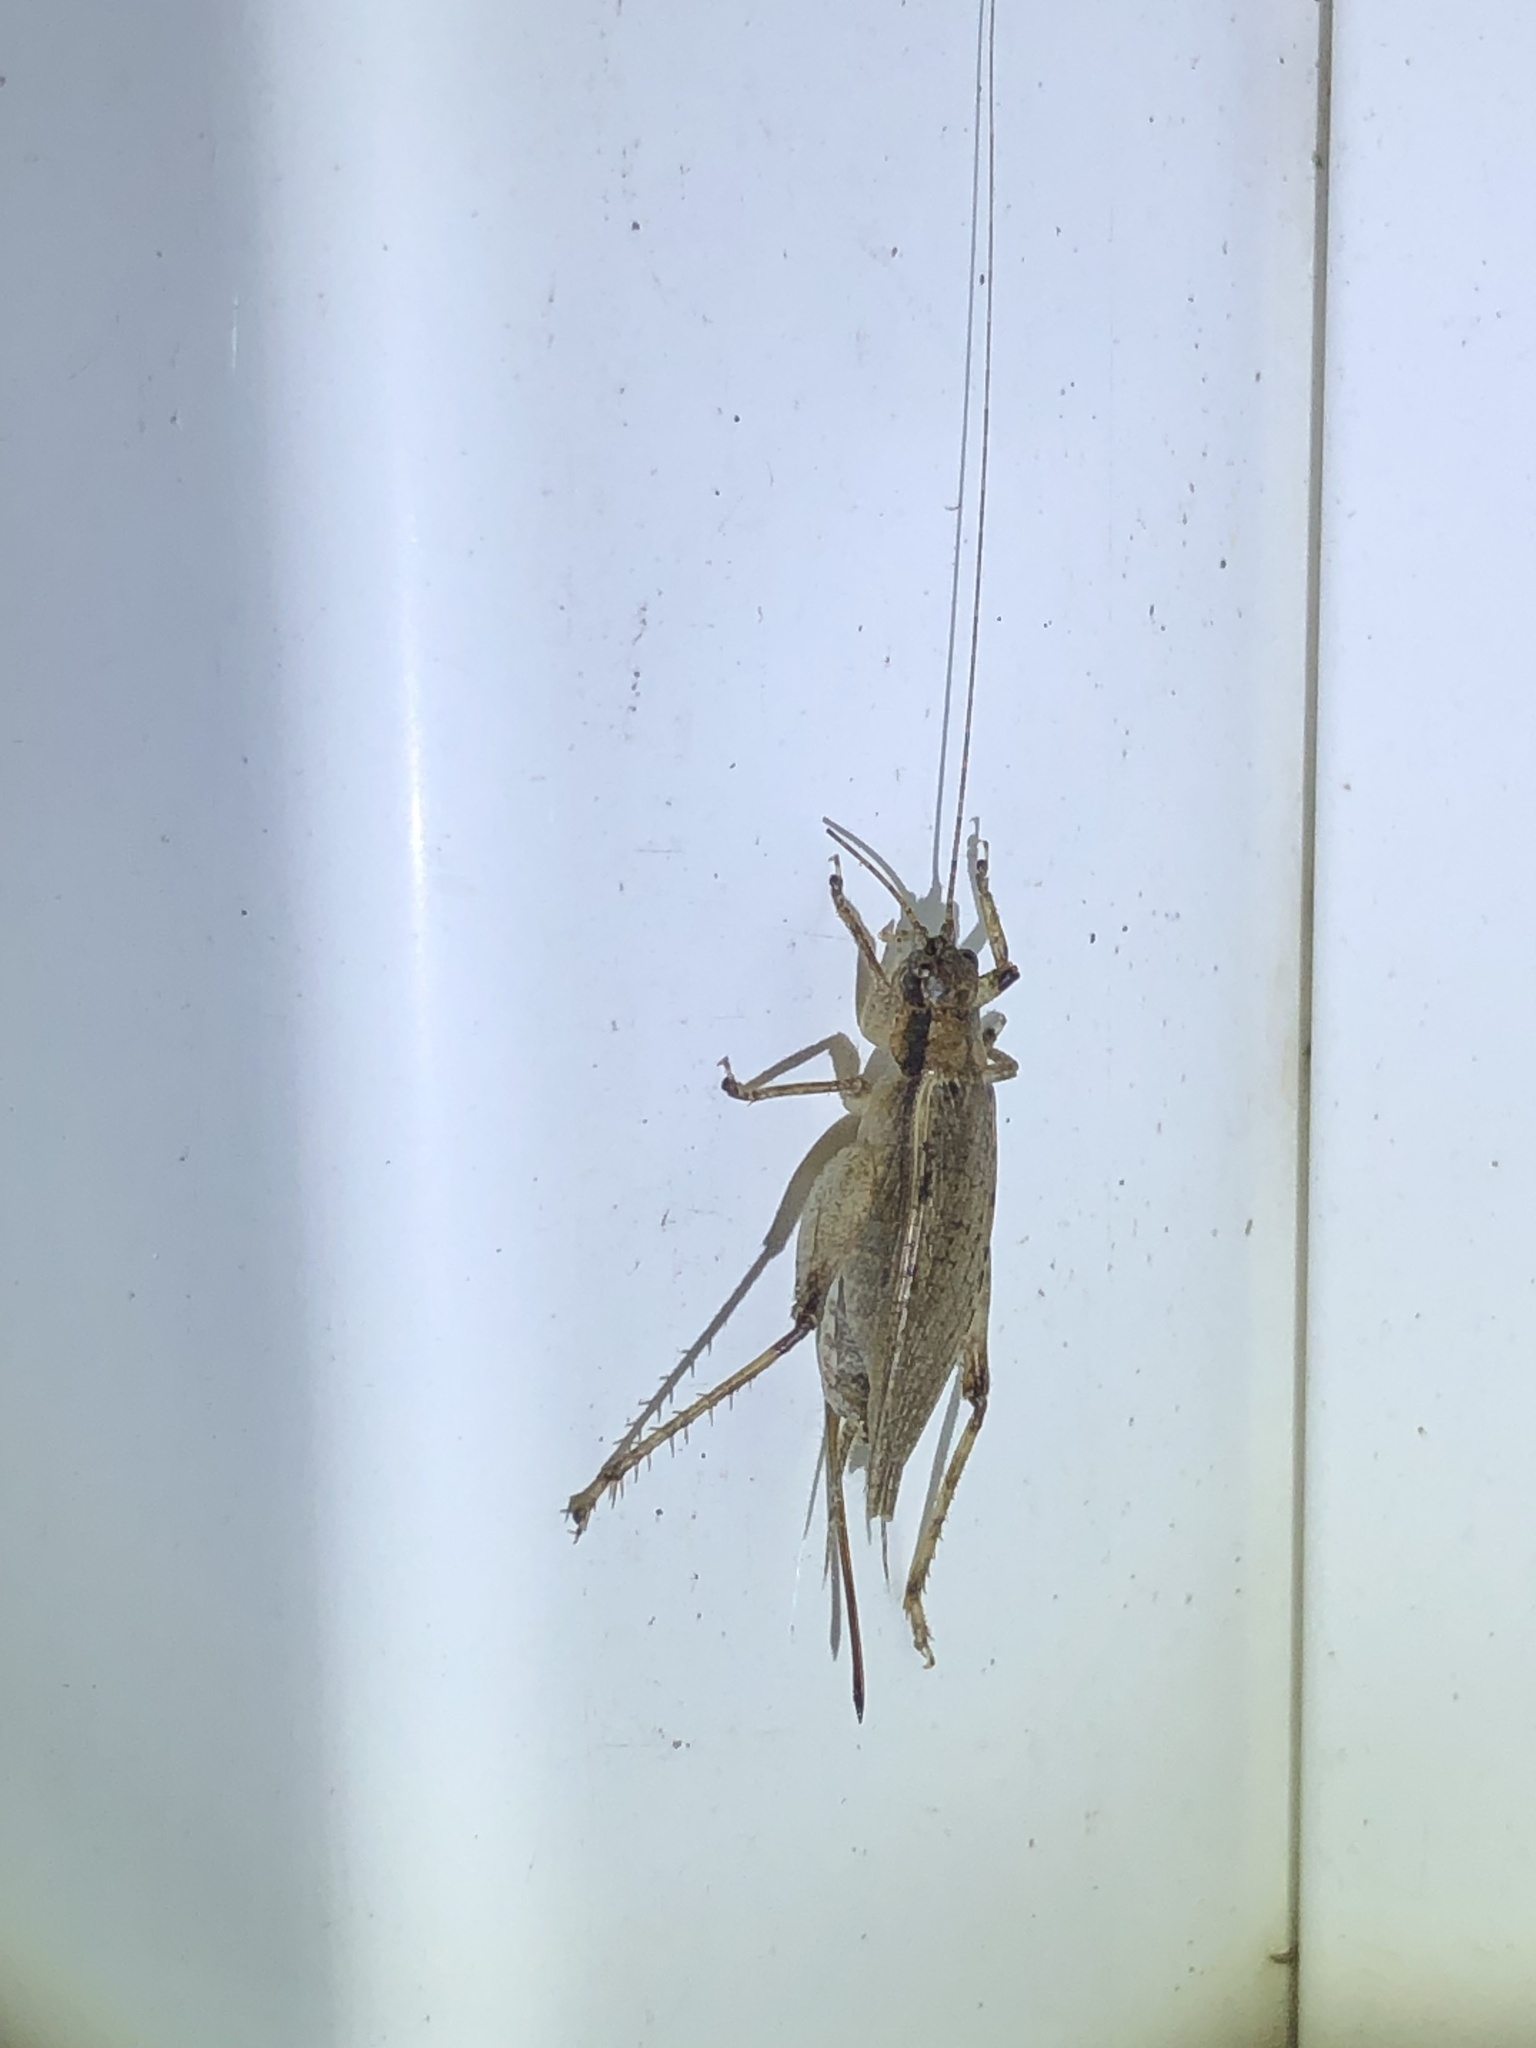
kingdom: Animalia
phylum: Arthropoda
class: Insecta
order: Orthoptera
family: Gryllidae
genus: Hapithus
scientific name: Hapithus saltator
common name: Jumping bush cricket
